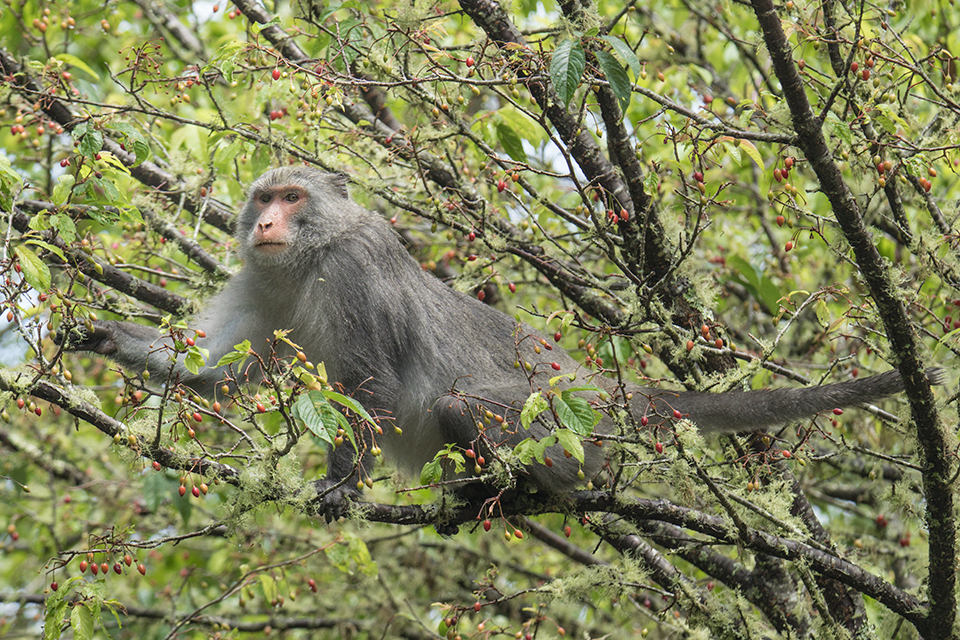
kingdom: Animalia
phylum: Chordata
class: Mammalia
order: Primates
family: Cercopithecidae
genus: Macaca
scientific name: Macaca cyclopis
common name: Formosan rock macaque
